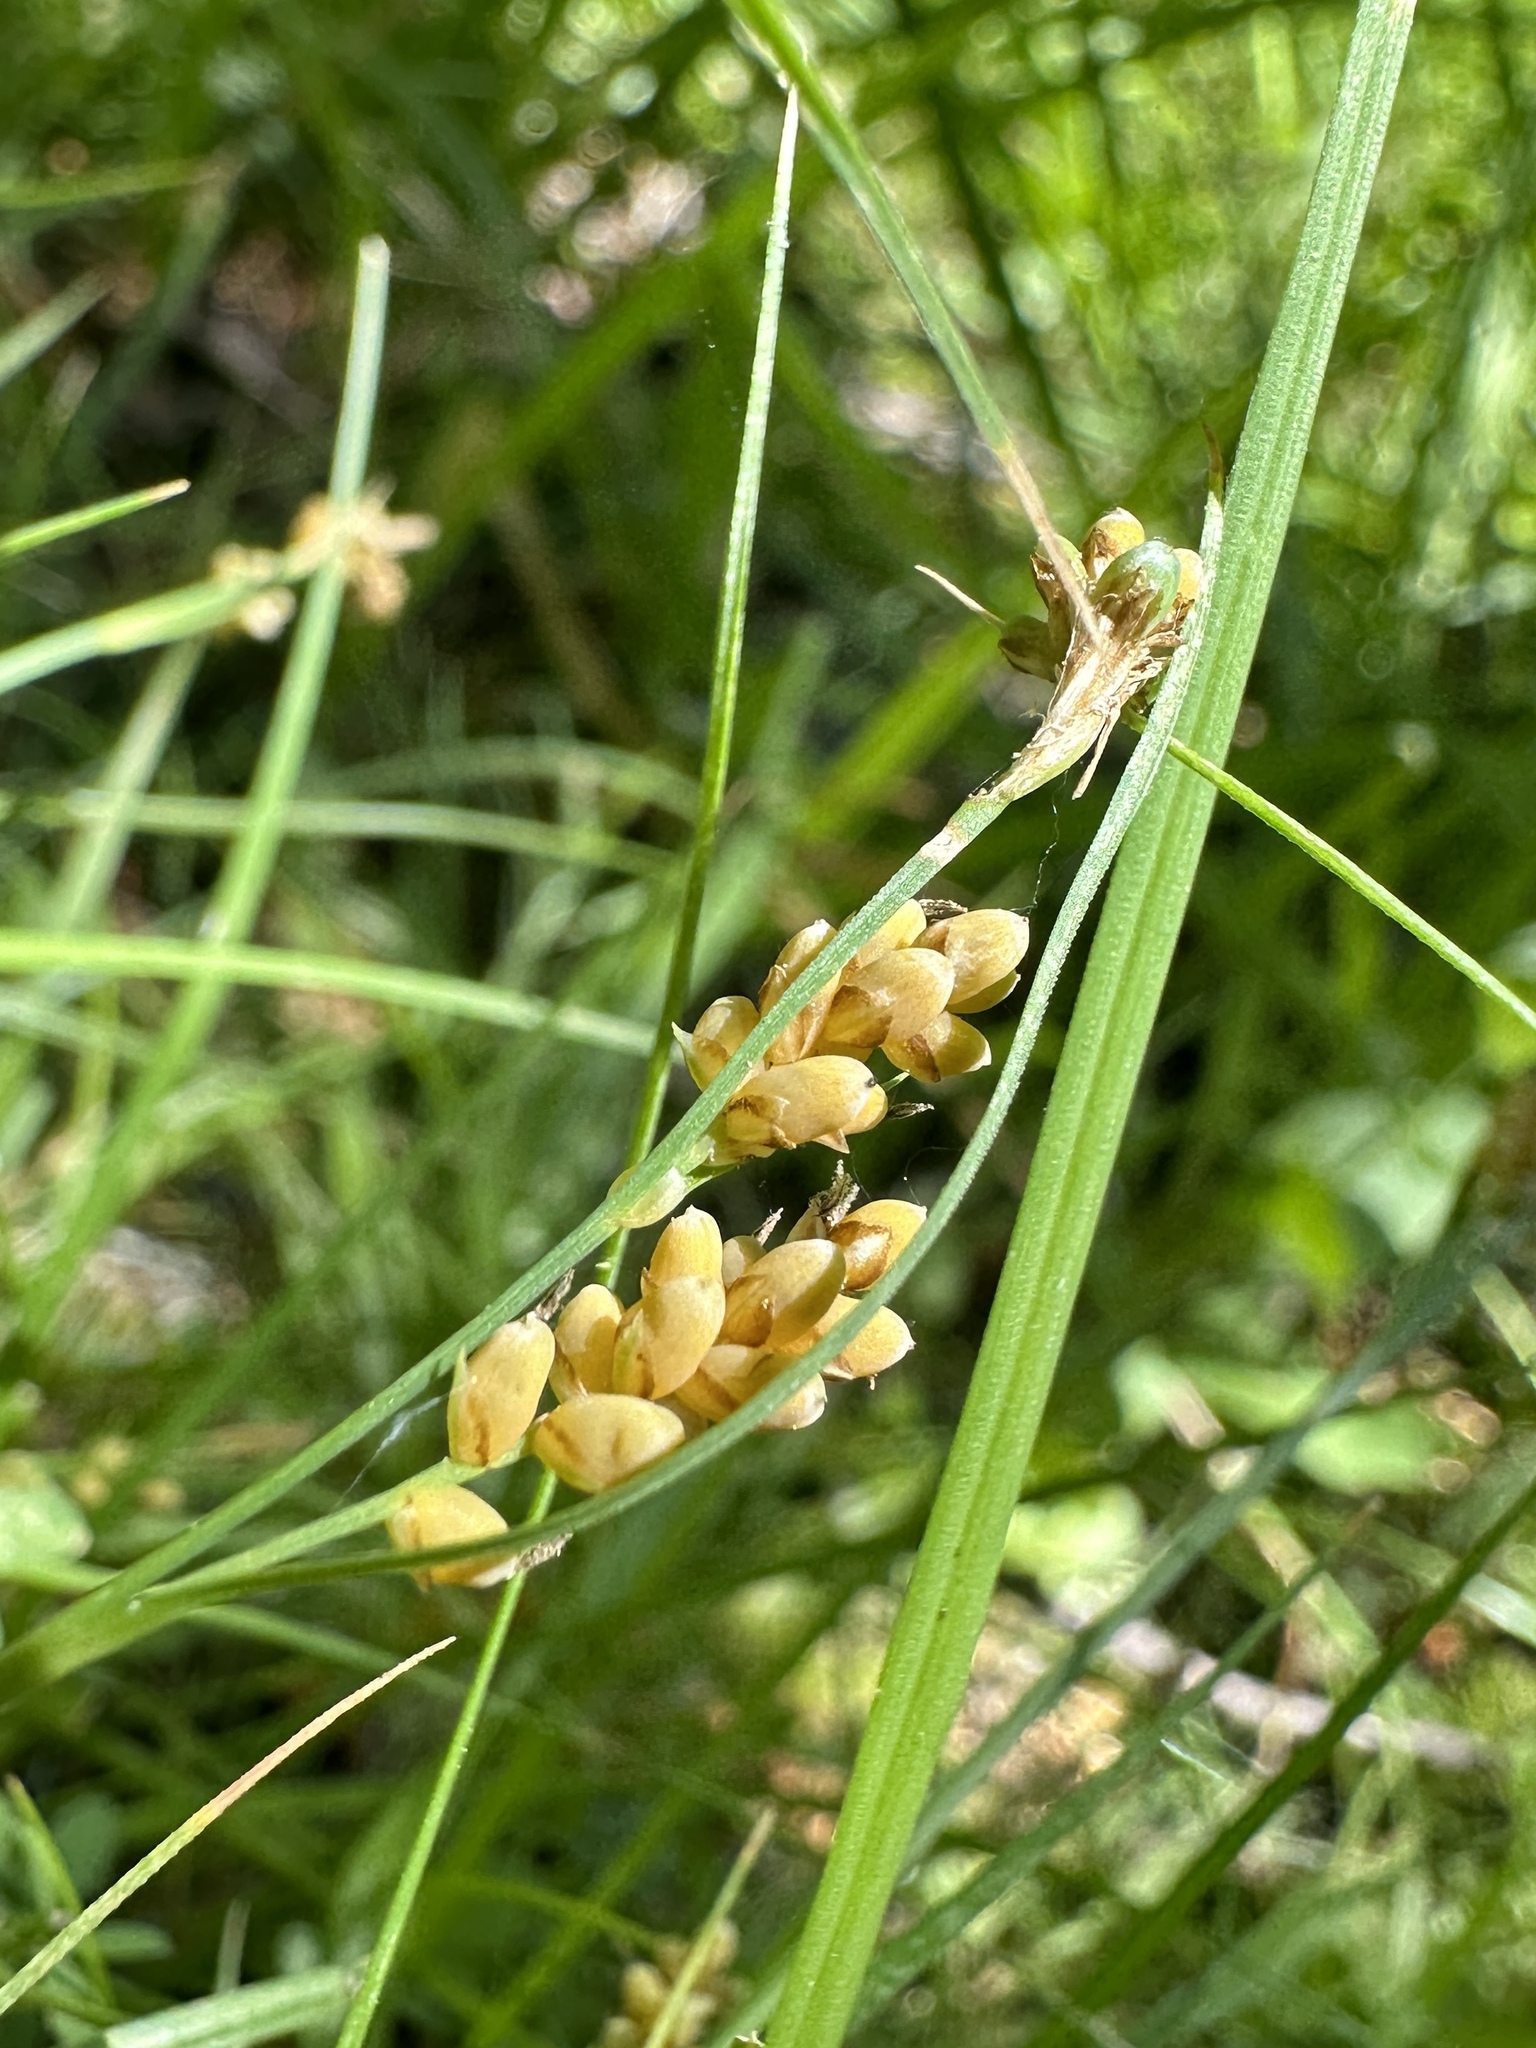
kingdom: Plantae
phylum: Tracheophyta
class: Liliopsida
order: Poales
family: Cyperaceae
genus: Carex
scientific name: Carex aurea
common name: Golden sedge
